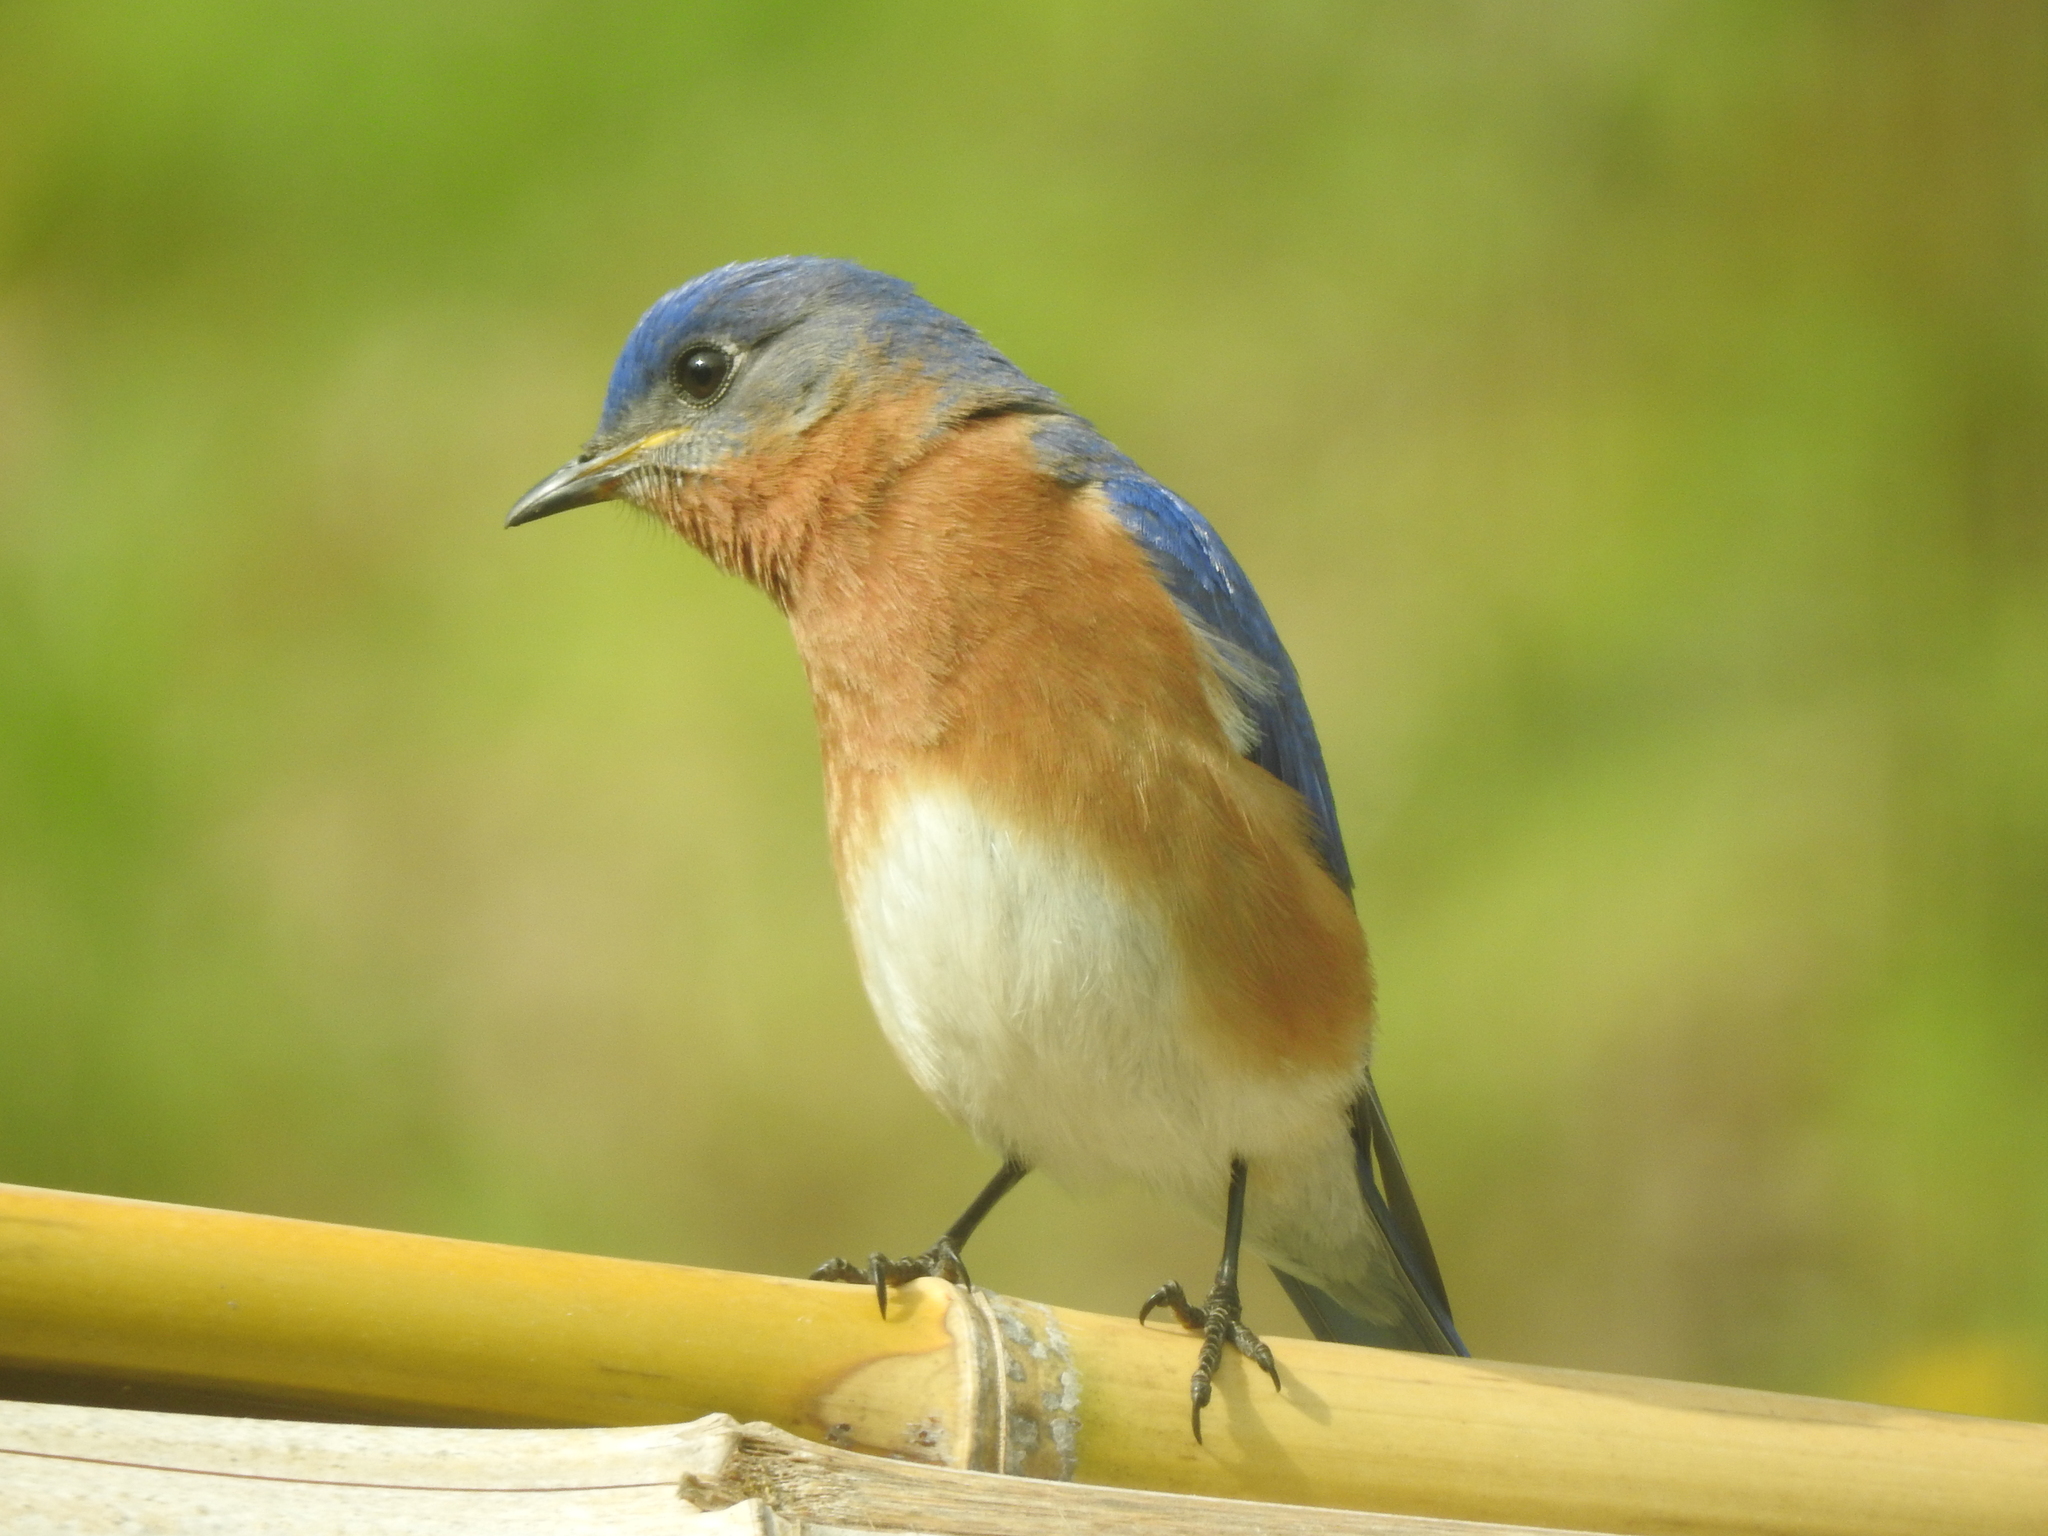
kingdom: Animalia
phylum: Chordata
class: Aves
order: Passeriformes
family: Turdidae
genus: Sialia
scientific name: Sialia sialis
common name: Eastern bluebird
